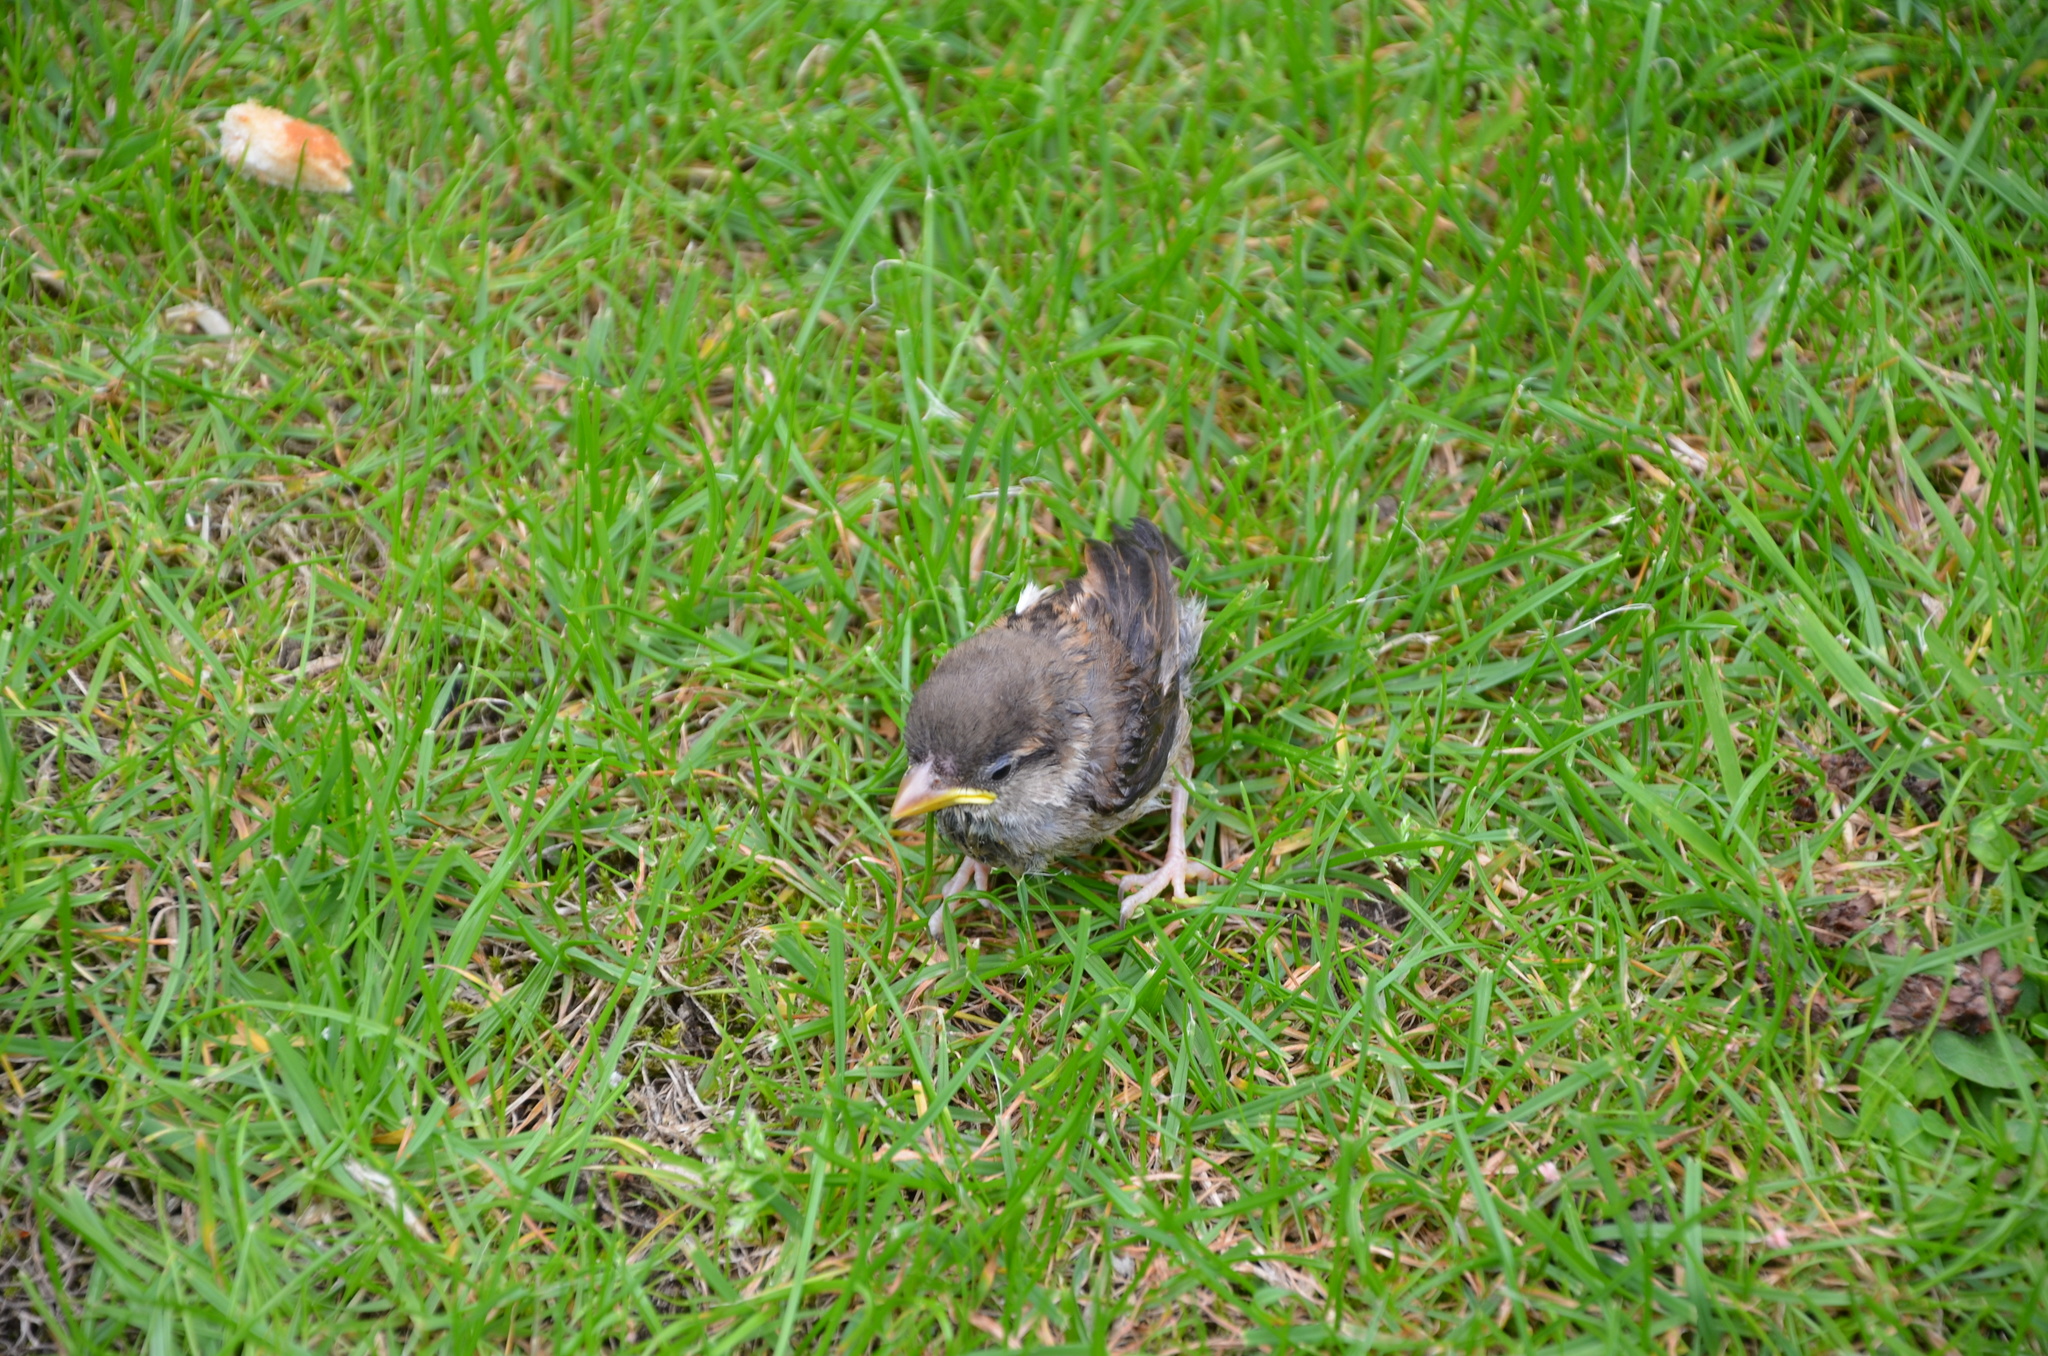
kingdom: Animalia
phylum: Chordata
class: Aves
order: Passeriformes
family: Passeridae
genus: Passer
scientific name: Passer domesticus
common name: House sparrow
